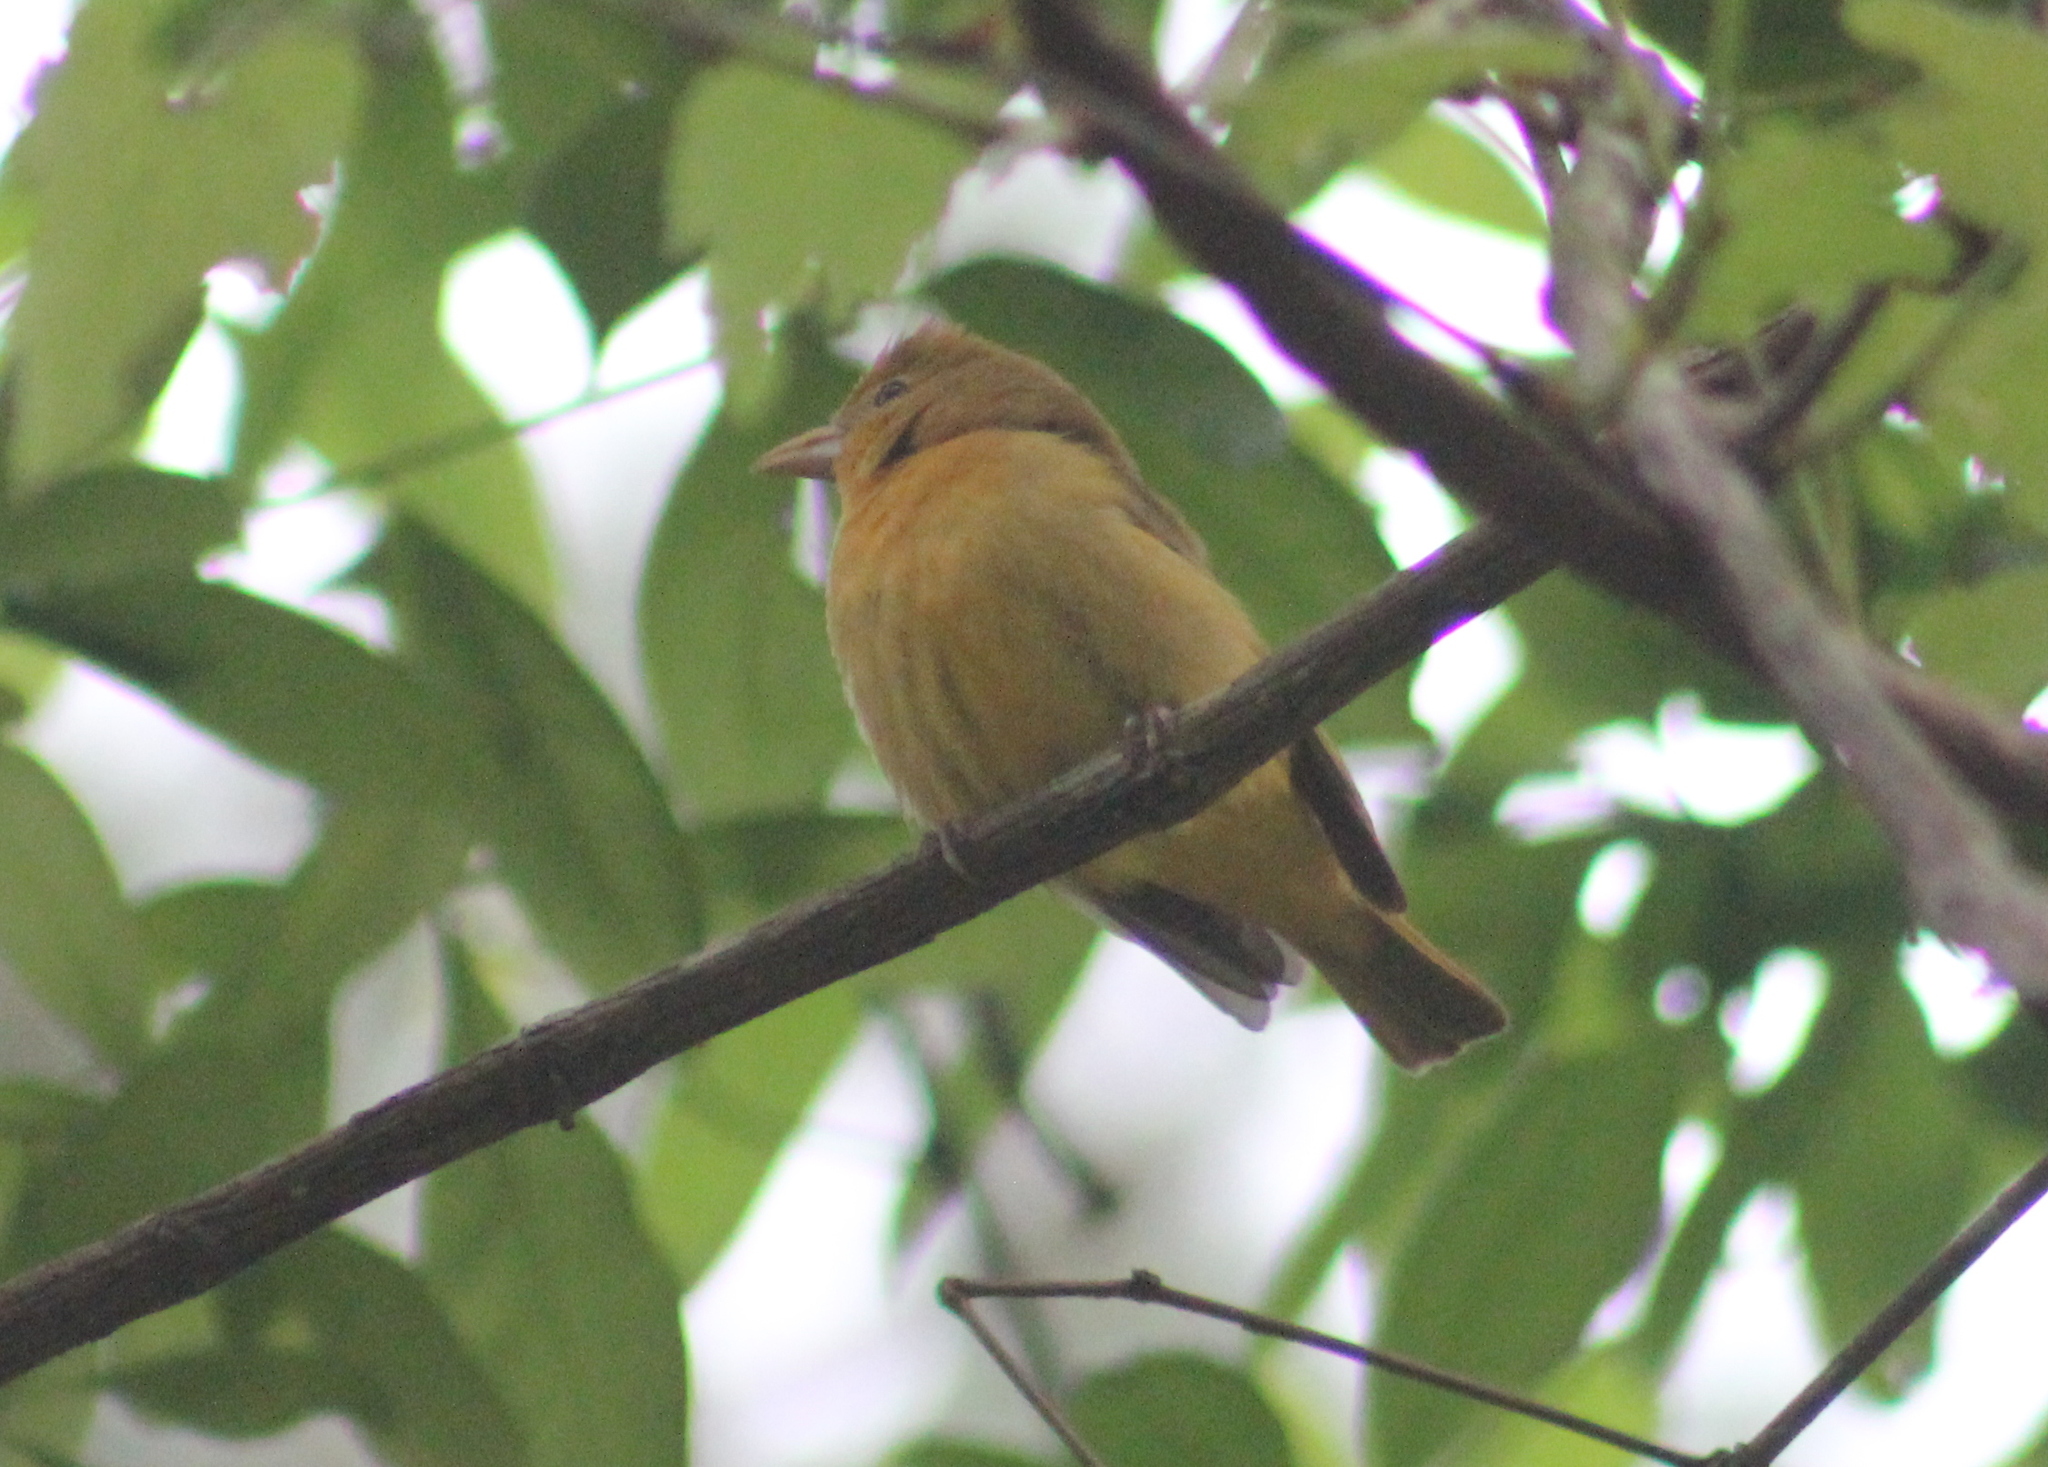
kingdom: Animalia
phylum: Chordata
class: Aves
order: Passeriformes
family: Cardinalidae
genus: Piranga
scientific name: Piranga rubra
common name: Summer tanager
